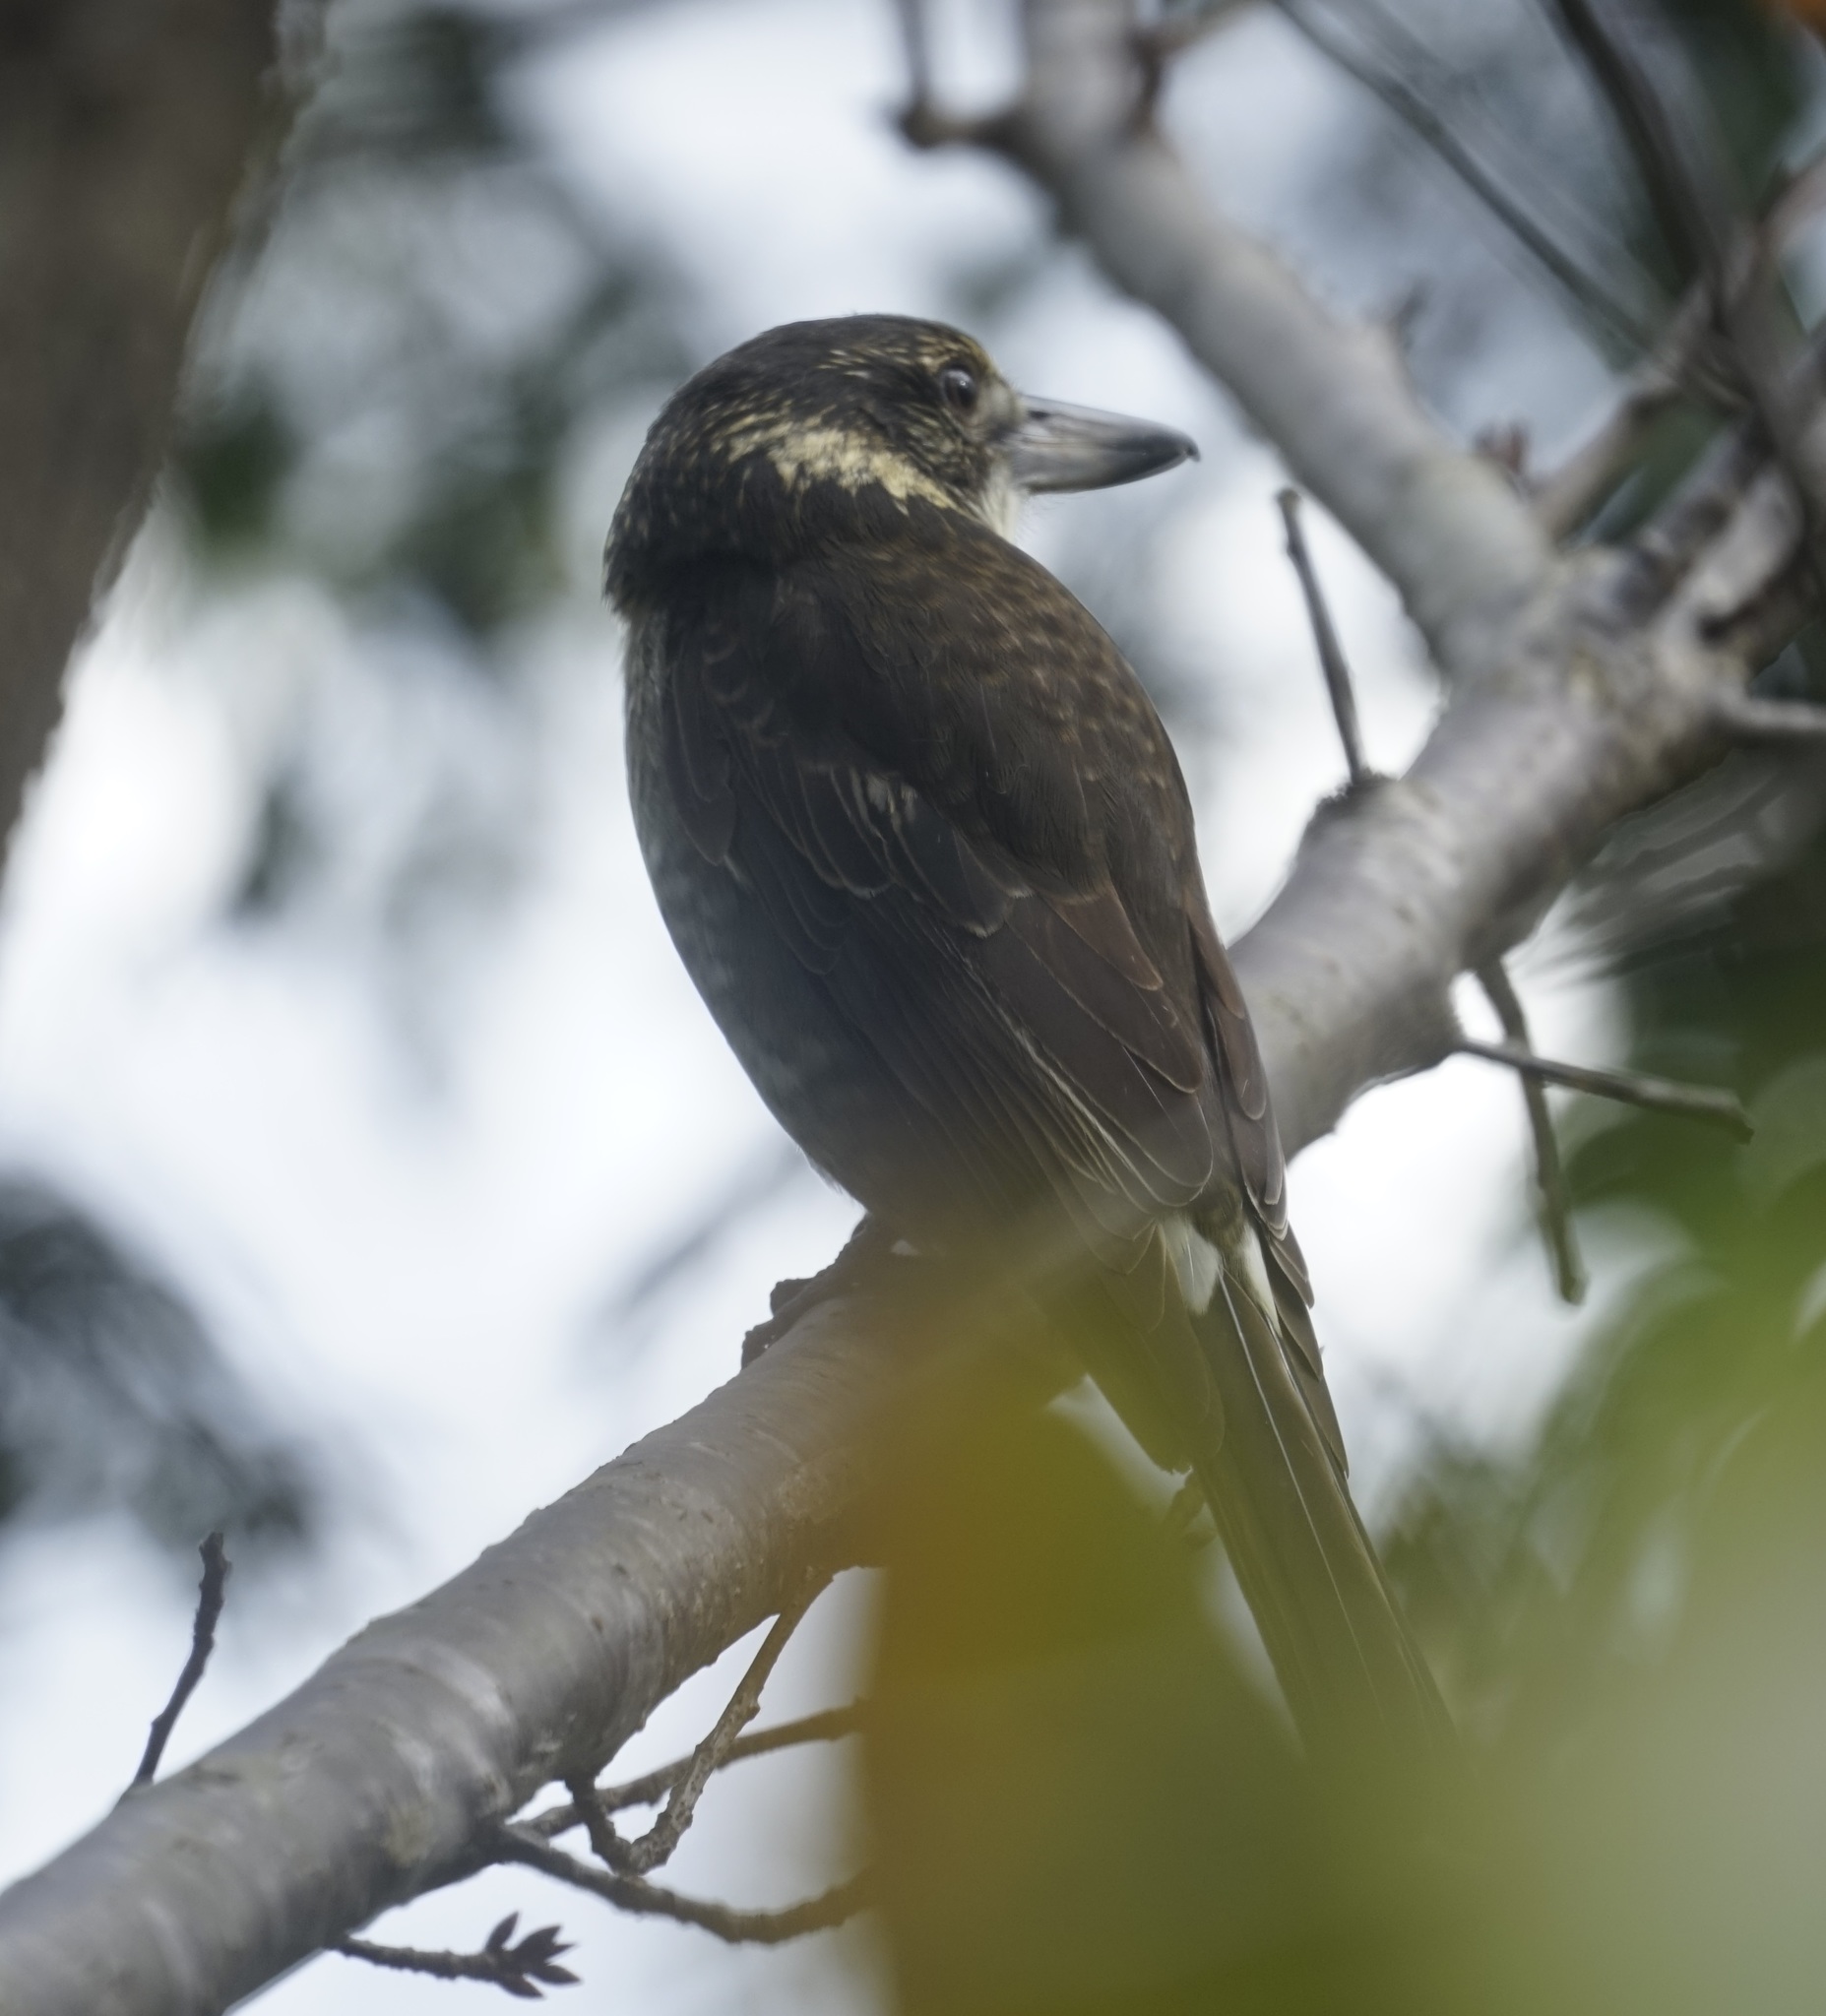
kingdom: Animalia
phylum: Chordata
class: Aves
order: Passeriformes
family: Cracticidae
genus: Cracticus
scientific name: Cracticus torquatus
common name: Grey butcherbird
